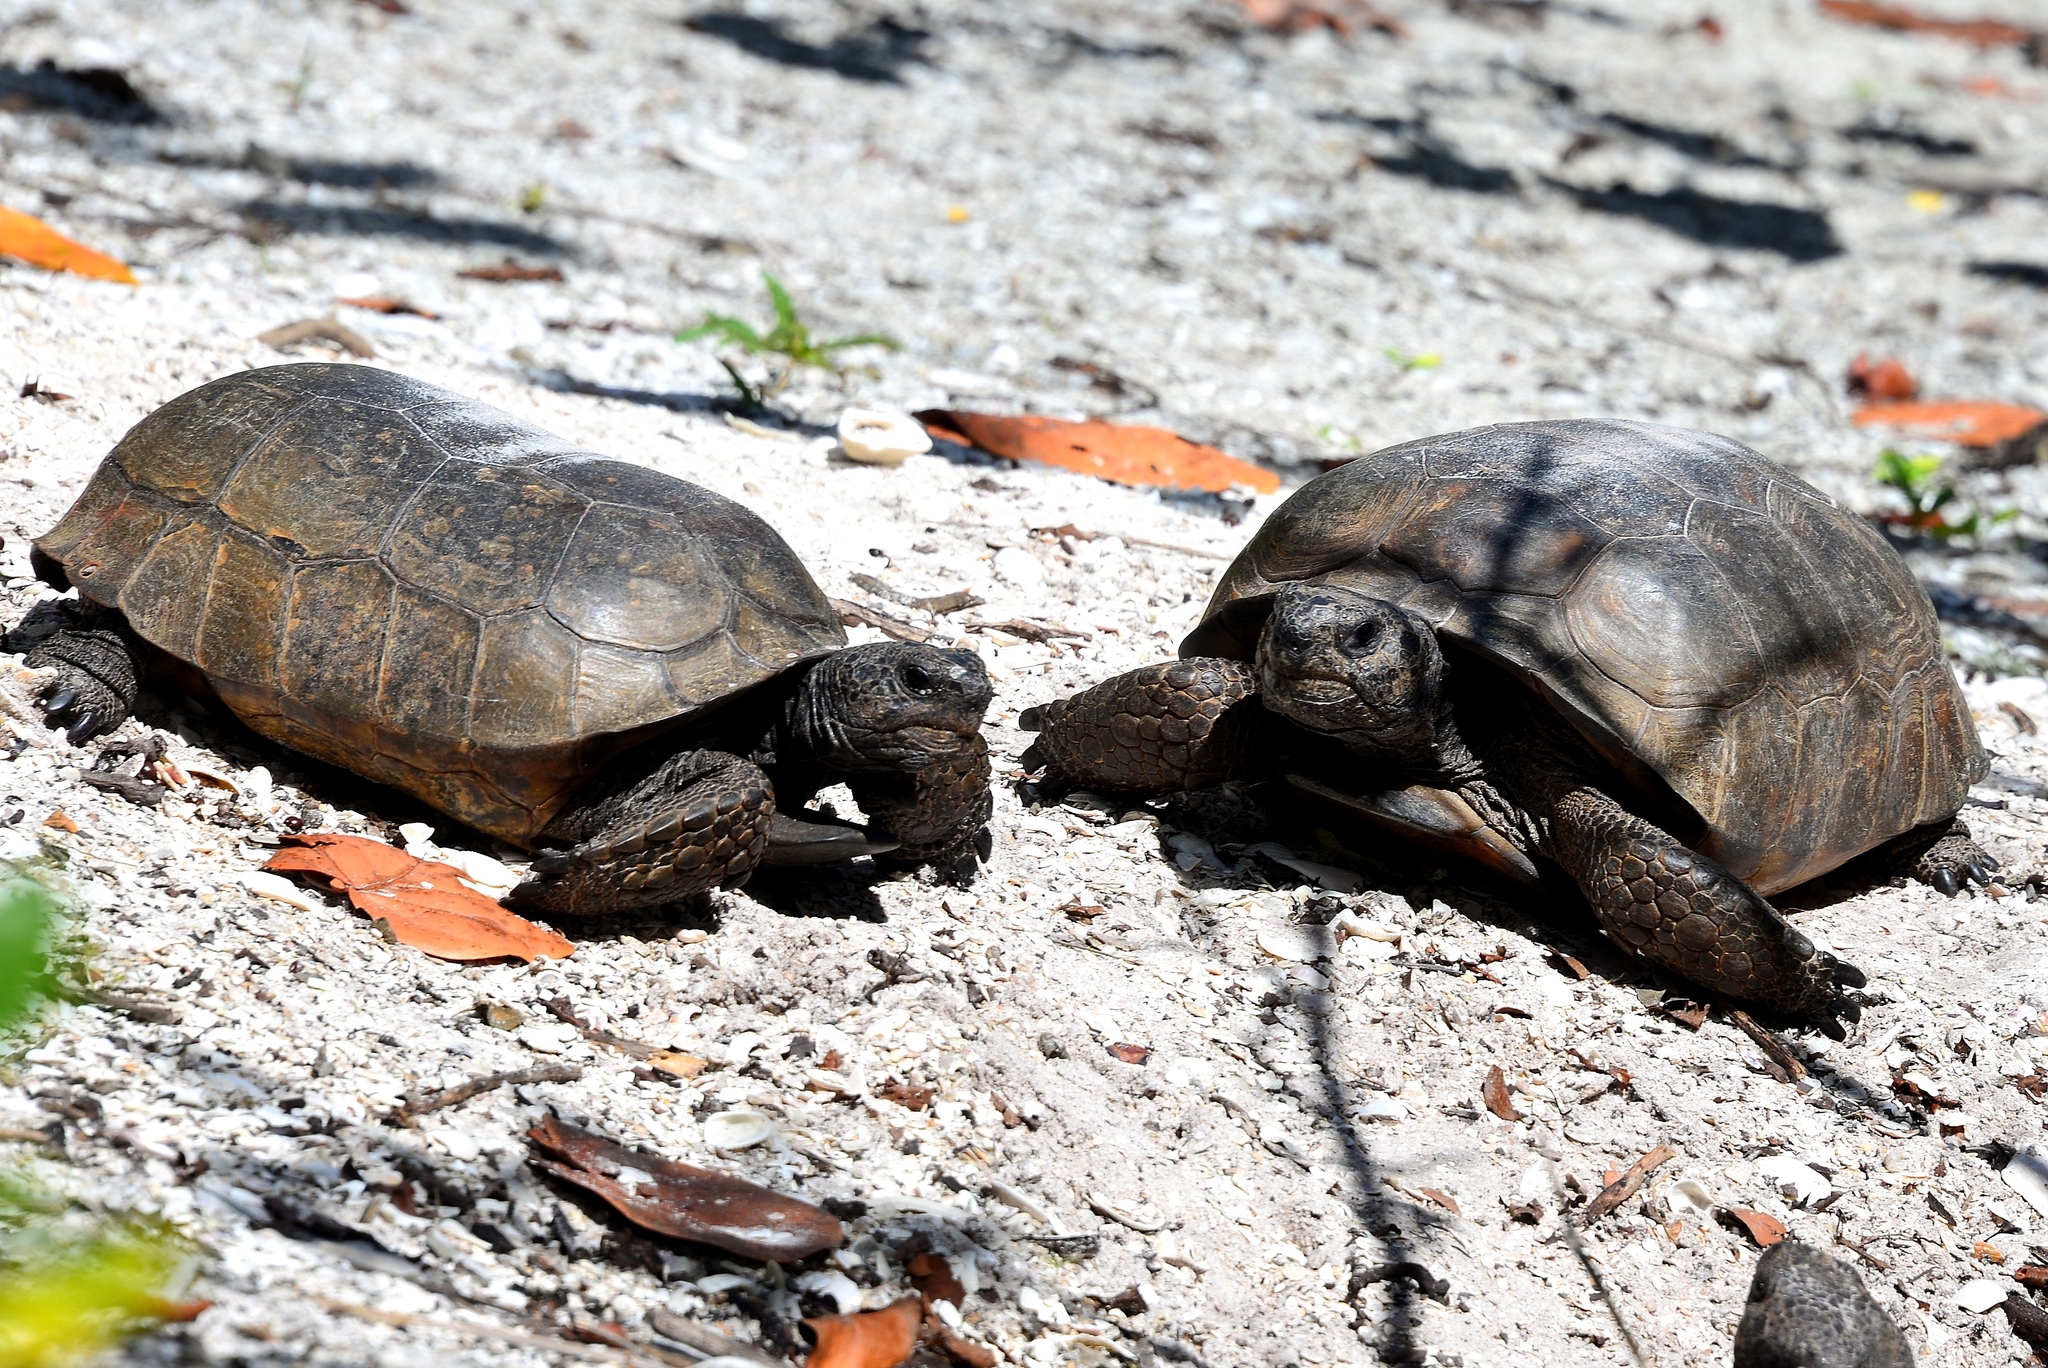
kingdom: Animalia
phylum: Chordata
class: Testudines
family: Testudinidae
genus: Gopherus
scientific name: Gopherus polyphemus
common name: Florida gopher tortoise
